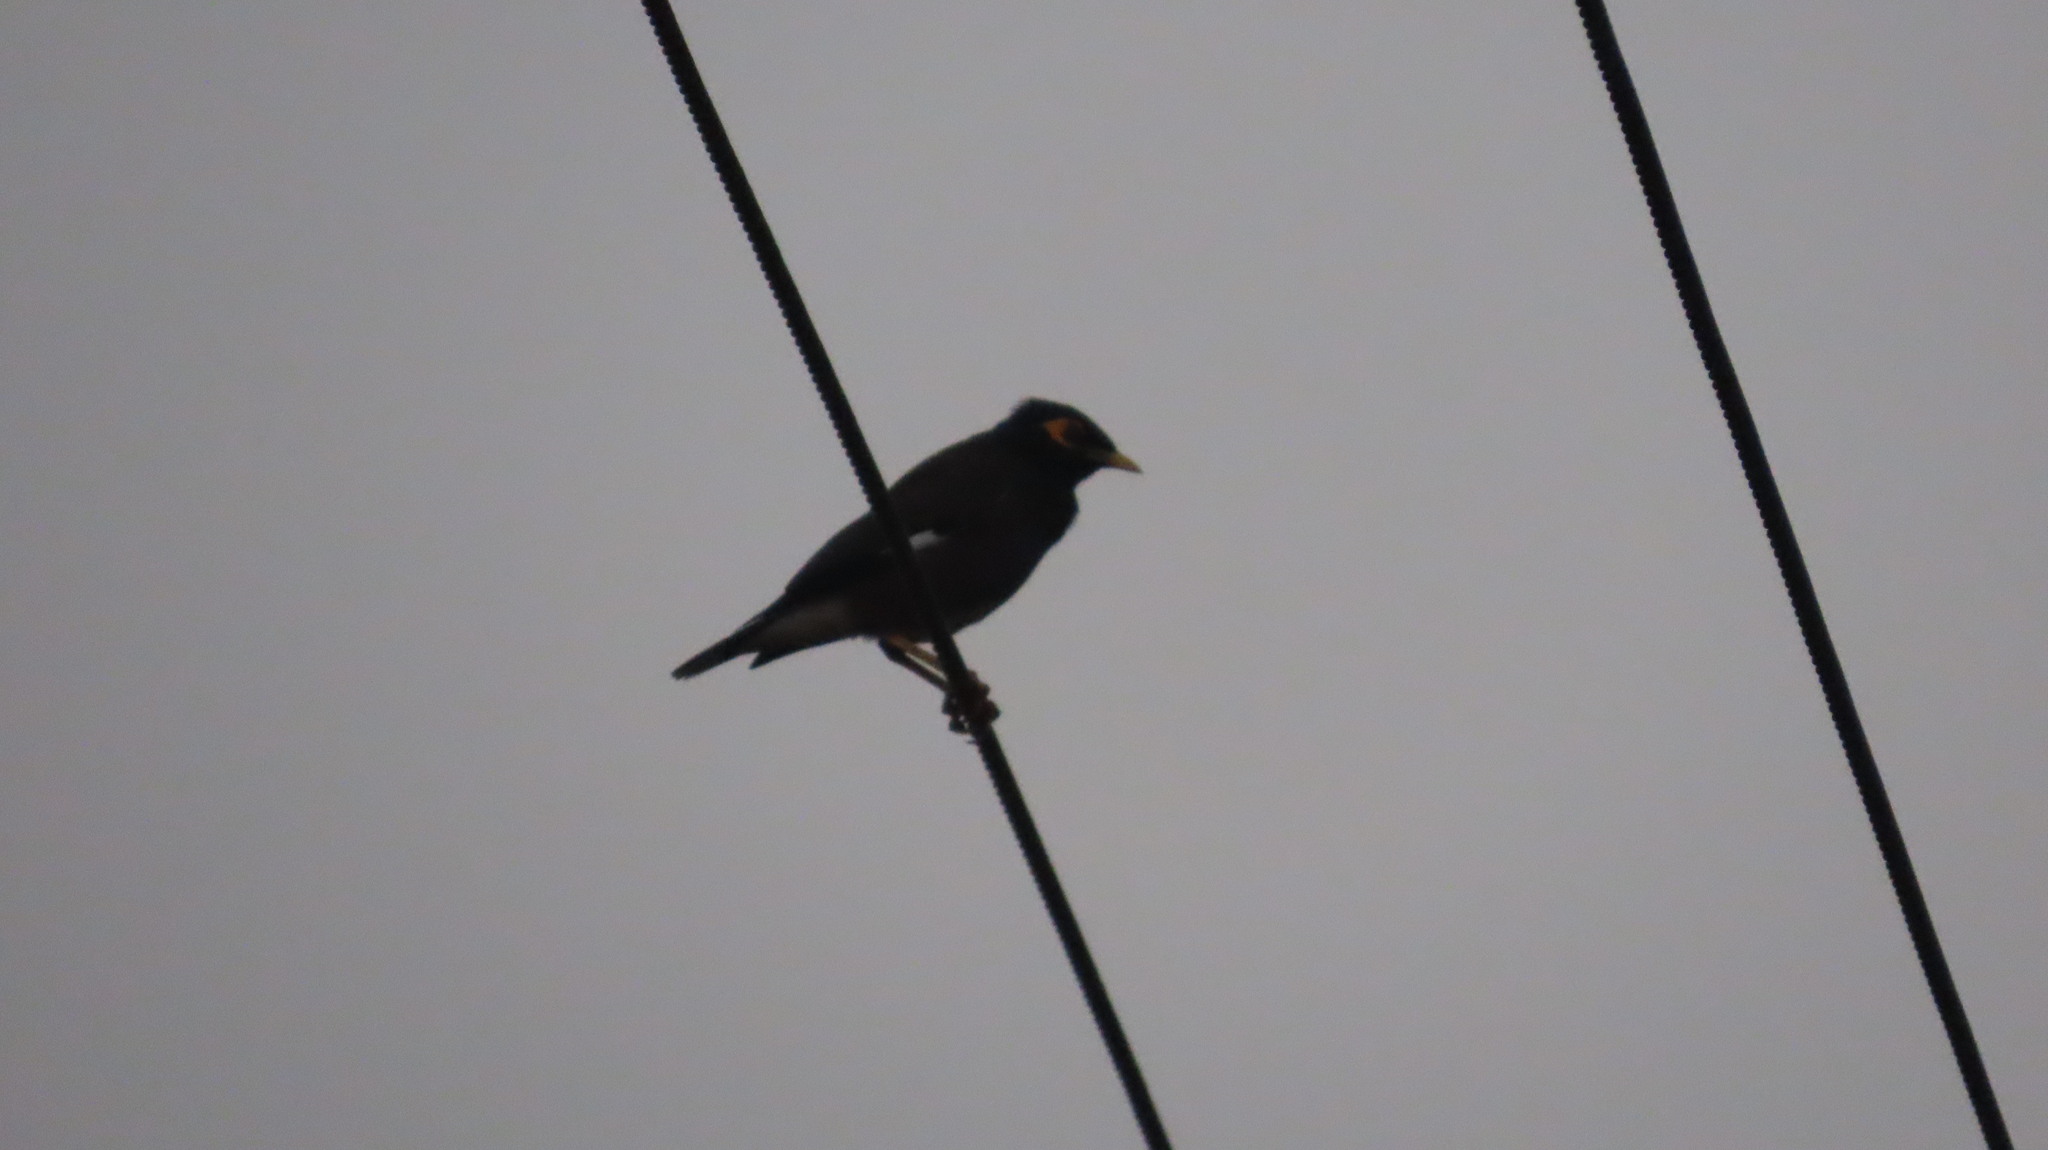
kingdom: Animalia
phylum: Chordata
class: Aves
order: Passeriformes
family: Sturnidae
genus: Acridotheres
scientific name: Acridotheres tristis
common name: Common myna
